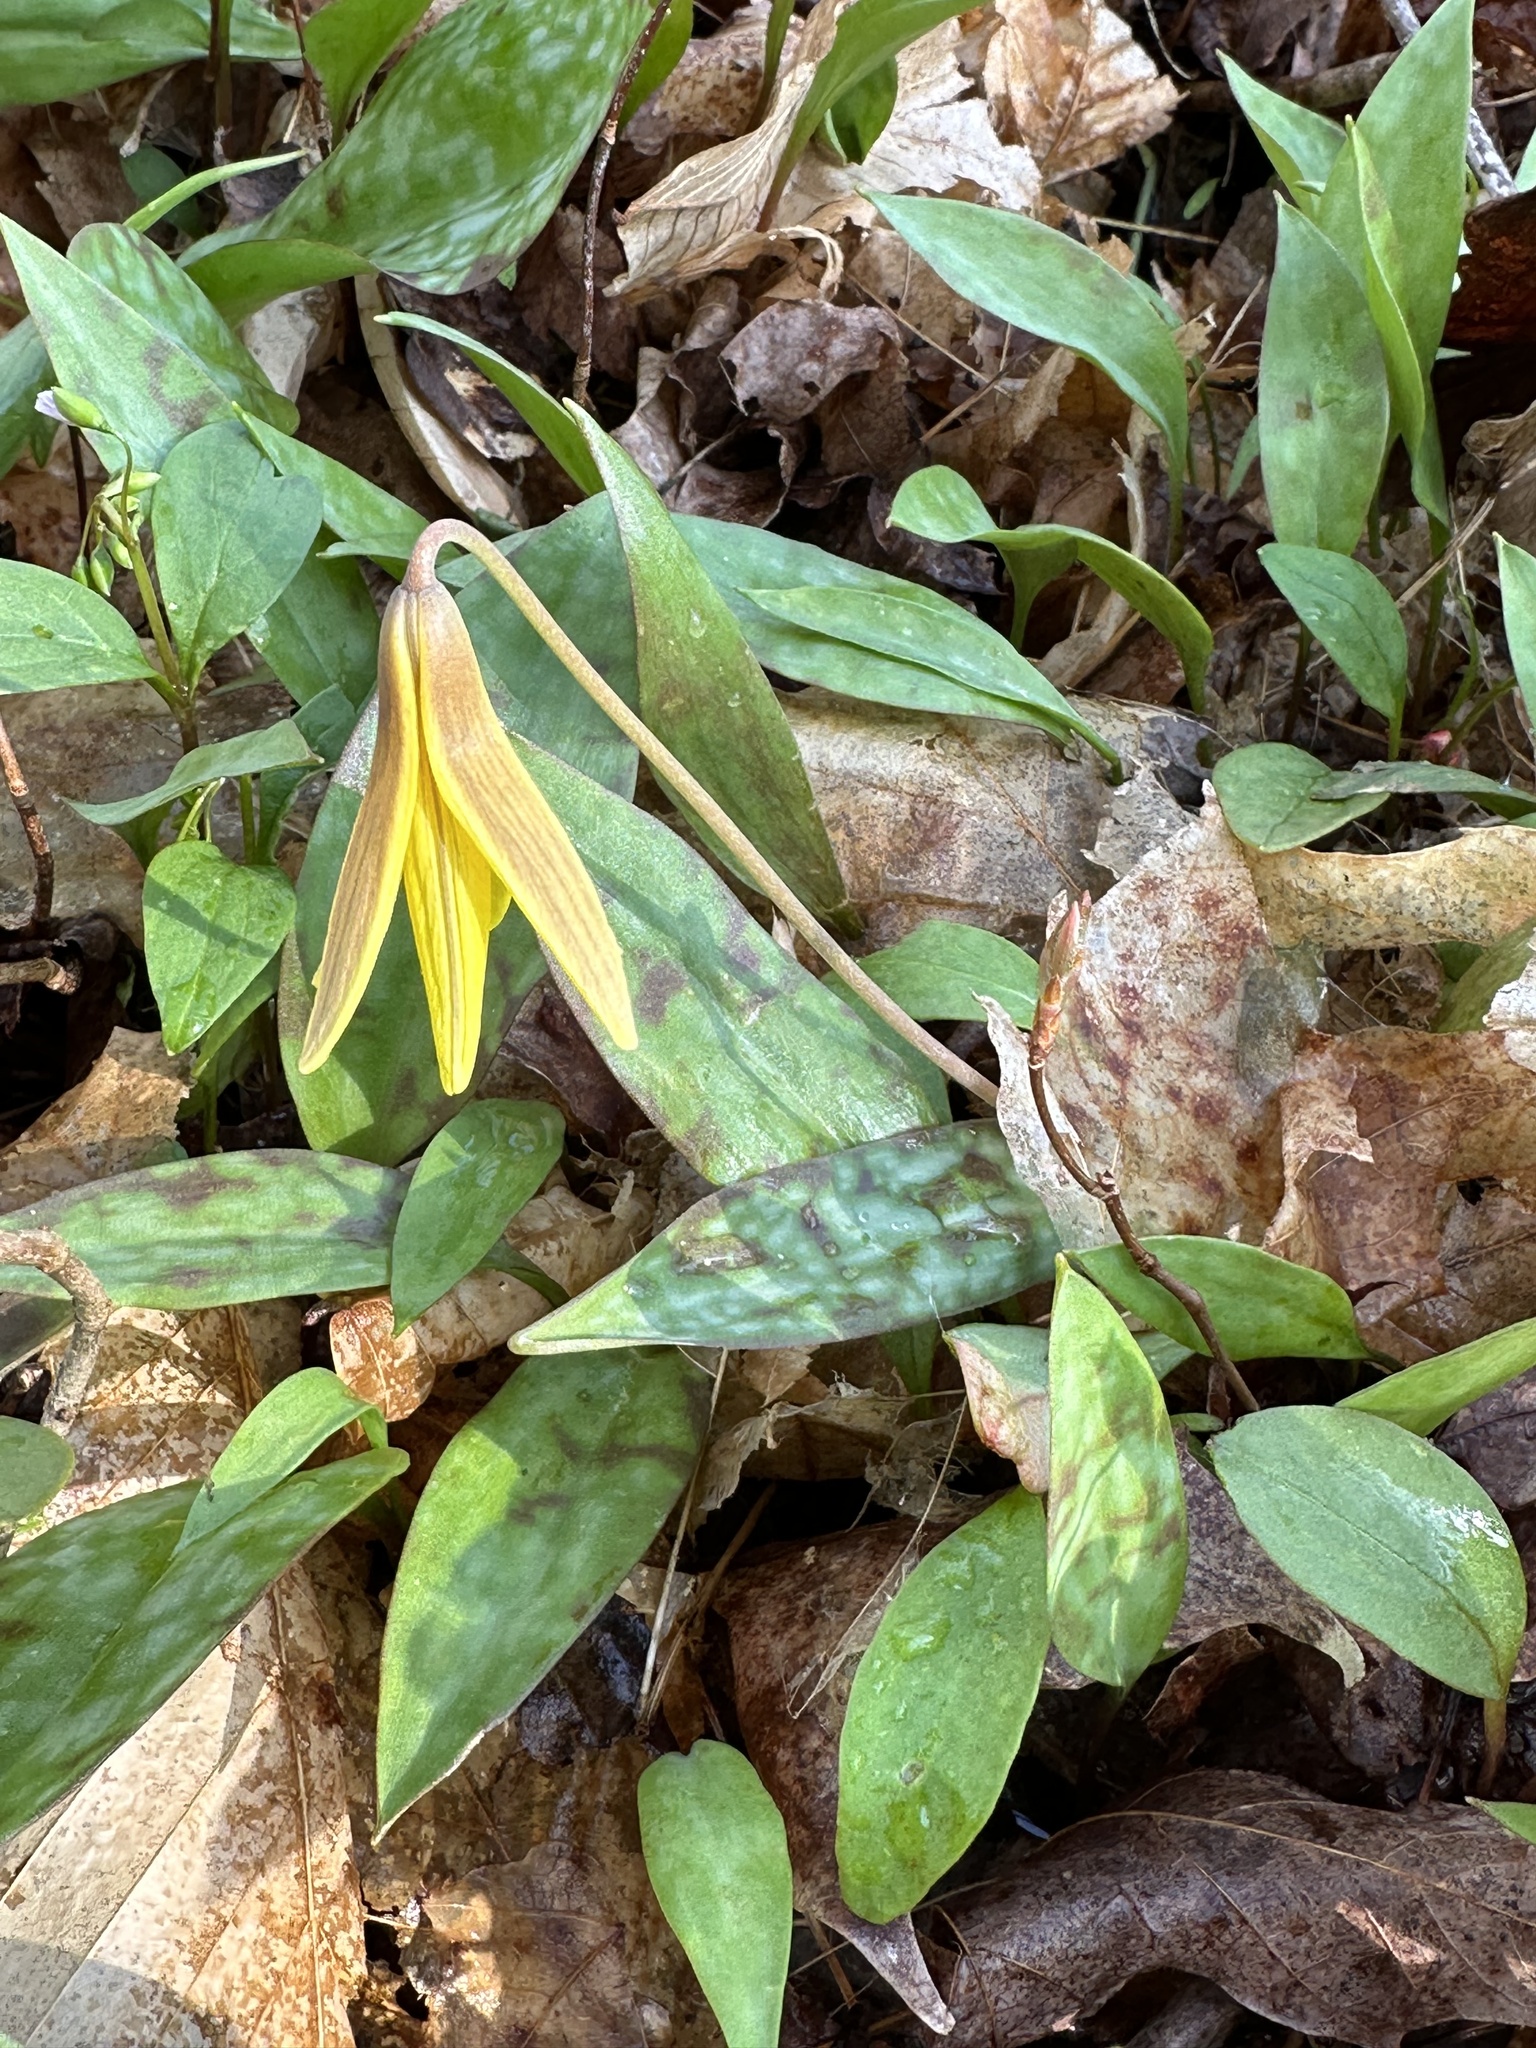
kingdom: Plantae
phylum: Tracheophyta
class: Liliopsida
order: Liliales
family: Liliaceae
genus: Erythronium
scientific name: Erythronium americanum
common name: Yellow adder's-tongue
